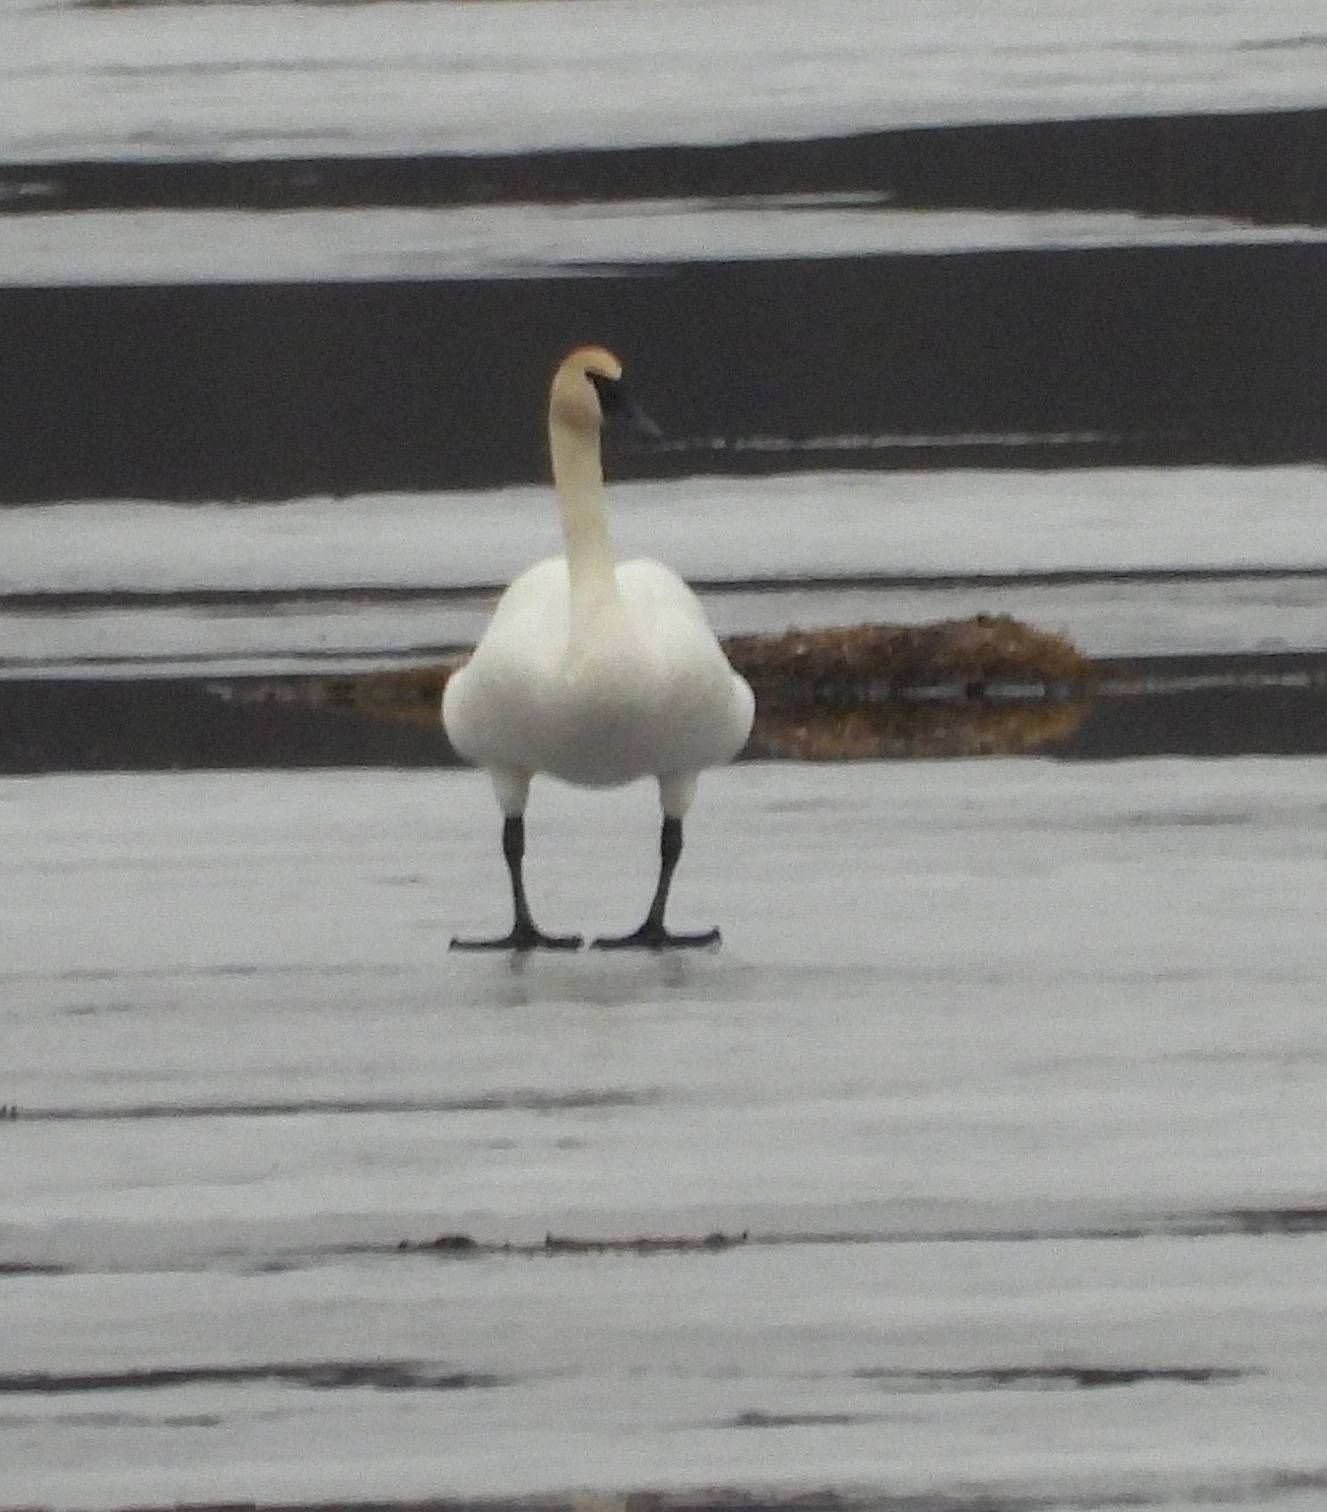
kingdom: Animalia
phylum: Chordata
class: Aves
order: Anseriformes
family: Anatidae
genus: Cygnus
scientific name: Cygnus buccinator
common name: Trumpeter swan
